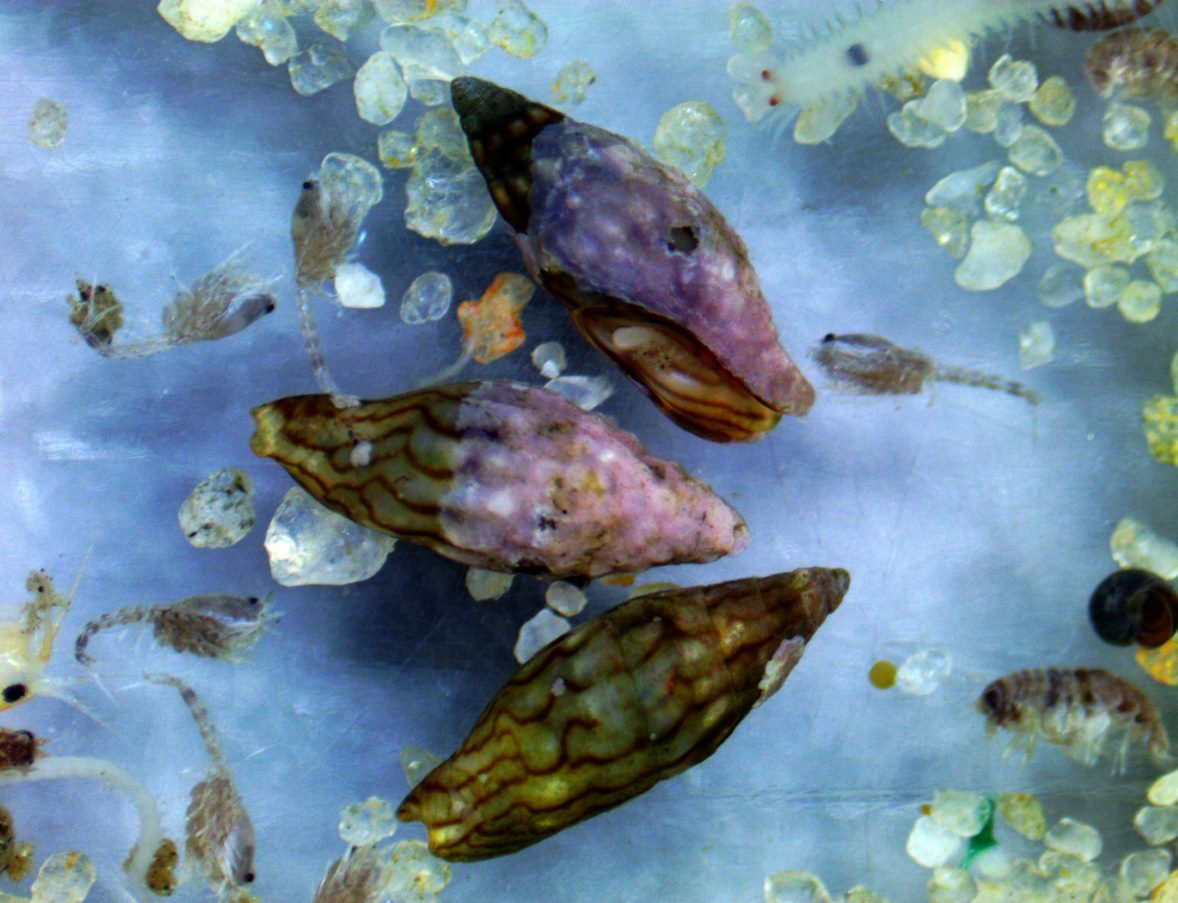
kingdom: Animalia
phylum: Mollusca
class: Gastropoda
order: Neogastropoda
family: Columbellidae
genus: Anachis
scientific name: Anachis atkinsoni
